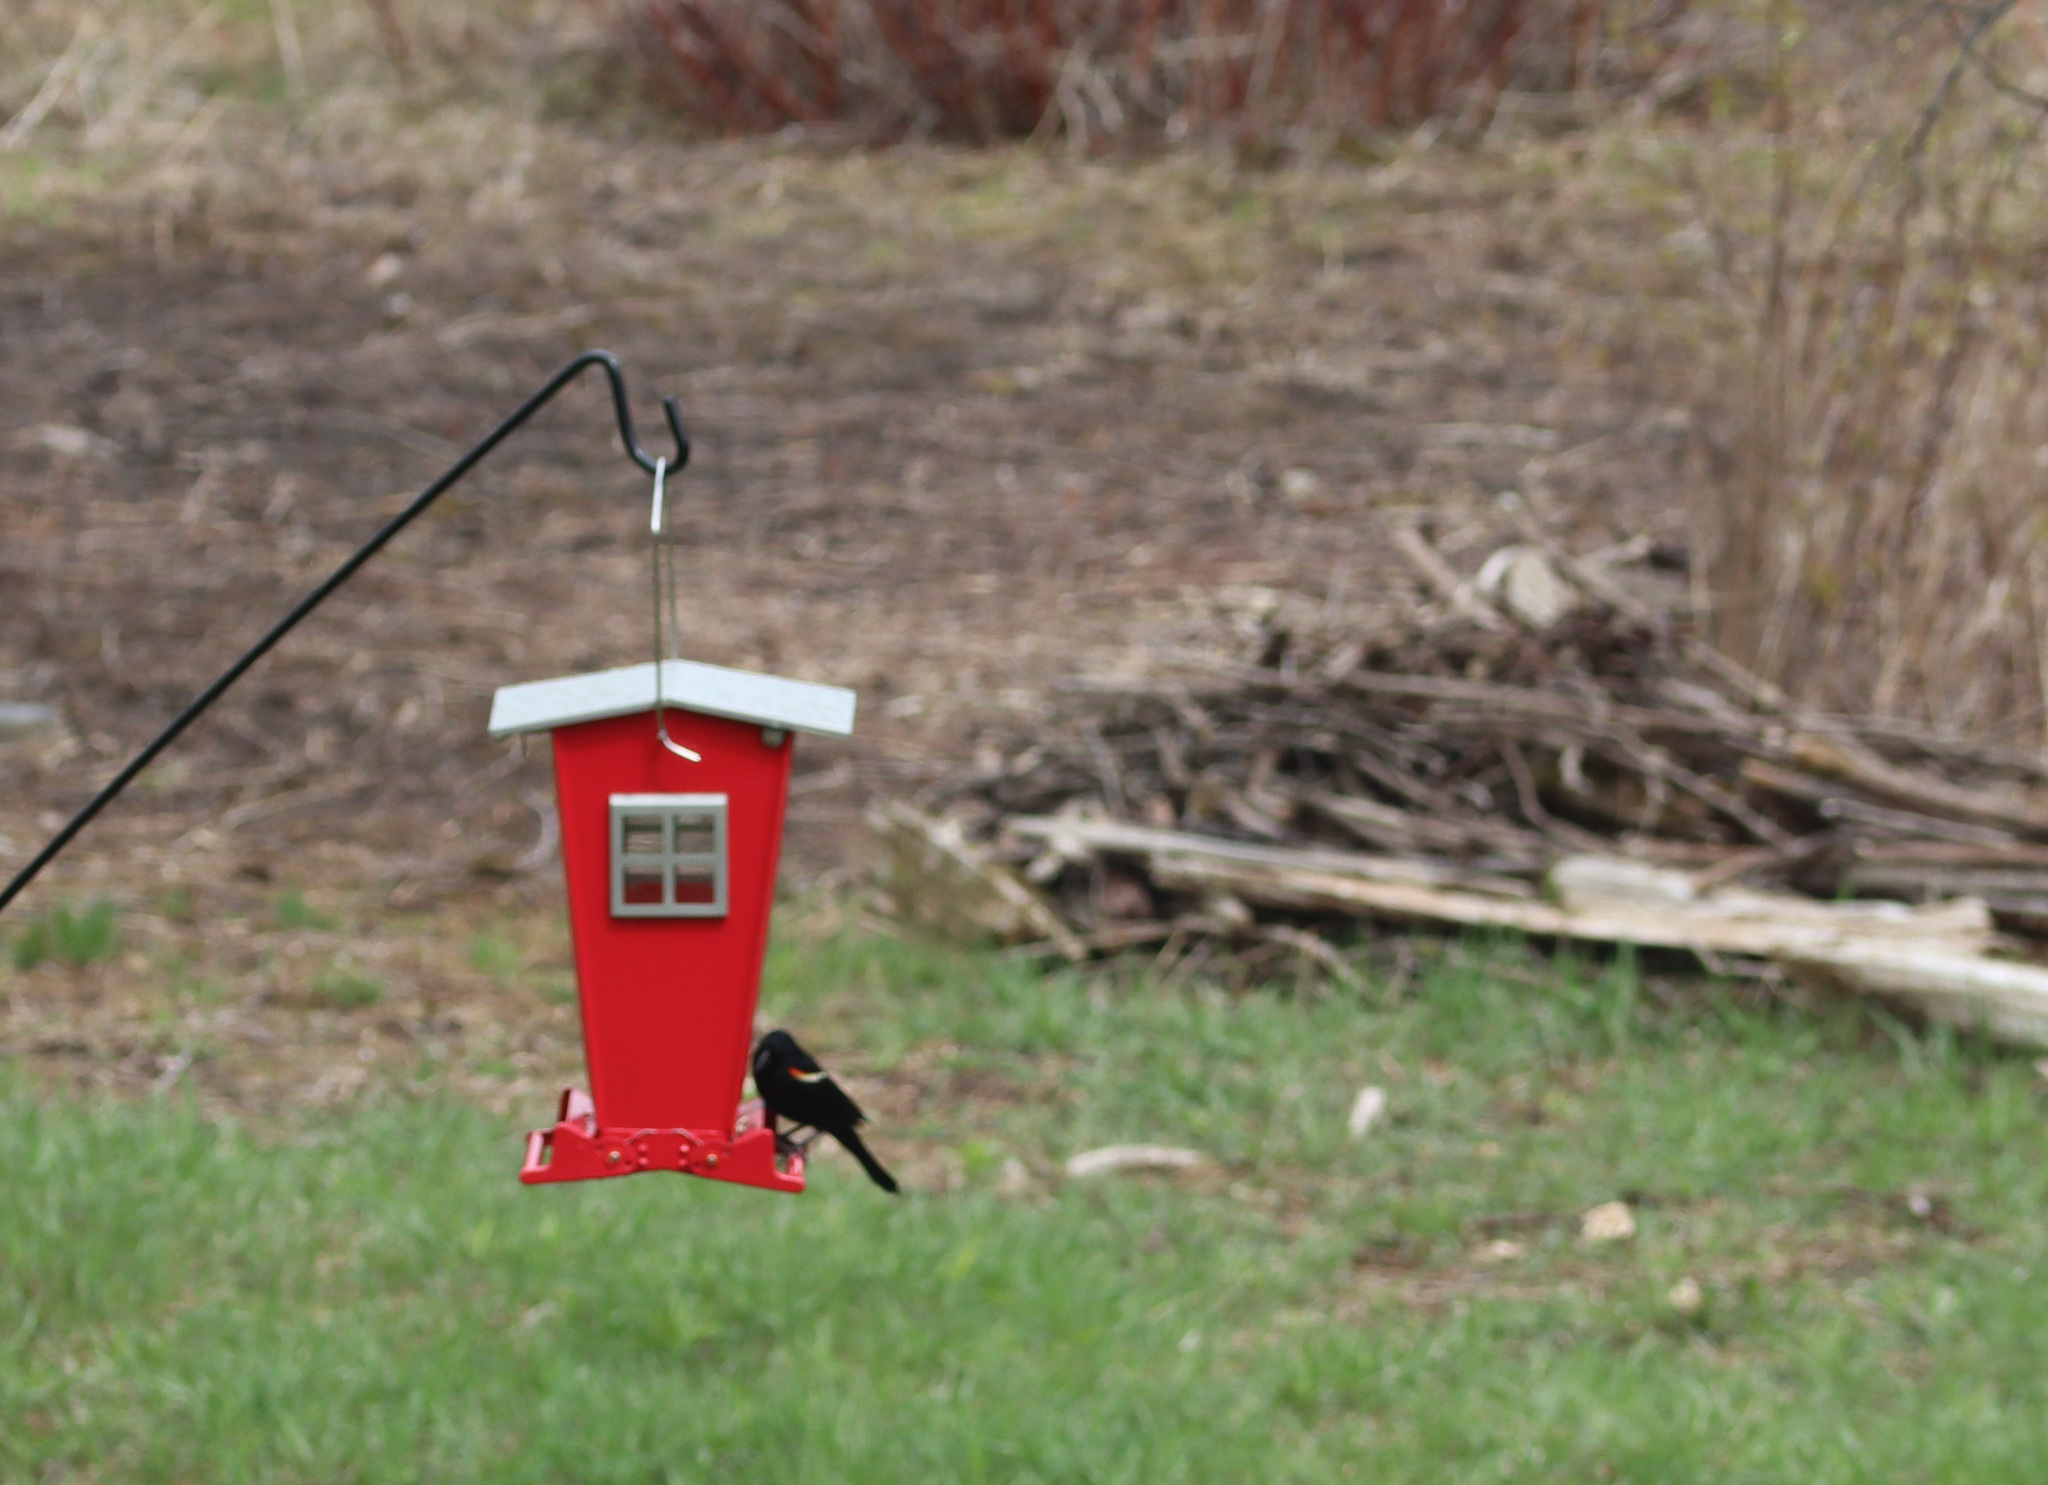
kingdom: Animalia
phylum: Chordata
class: Aves
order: Passeriformes
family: Icteridae
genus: Agelaius
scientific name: Agelaius phoeniceus
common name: Red-winged blackbird
